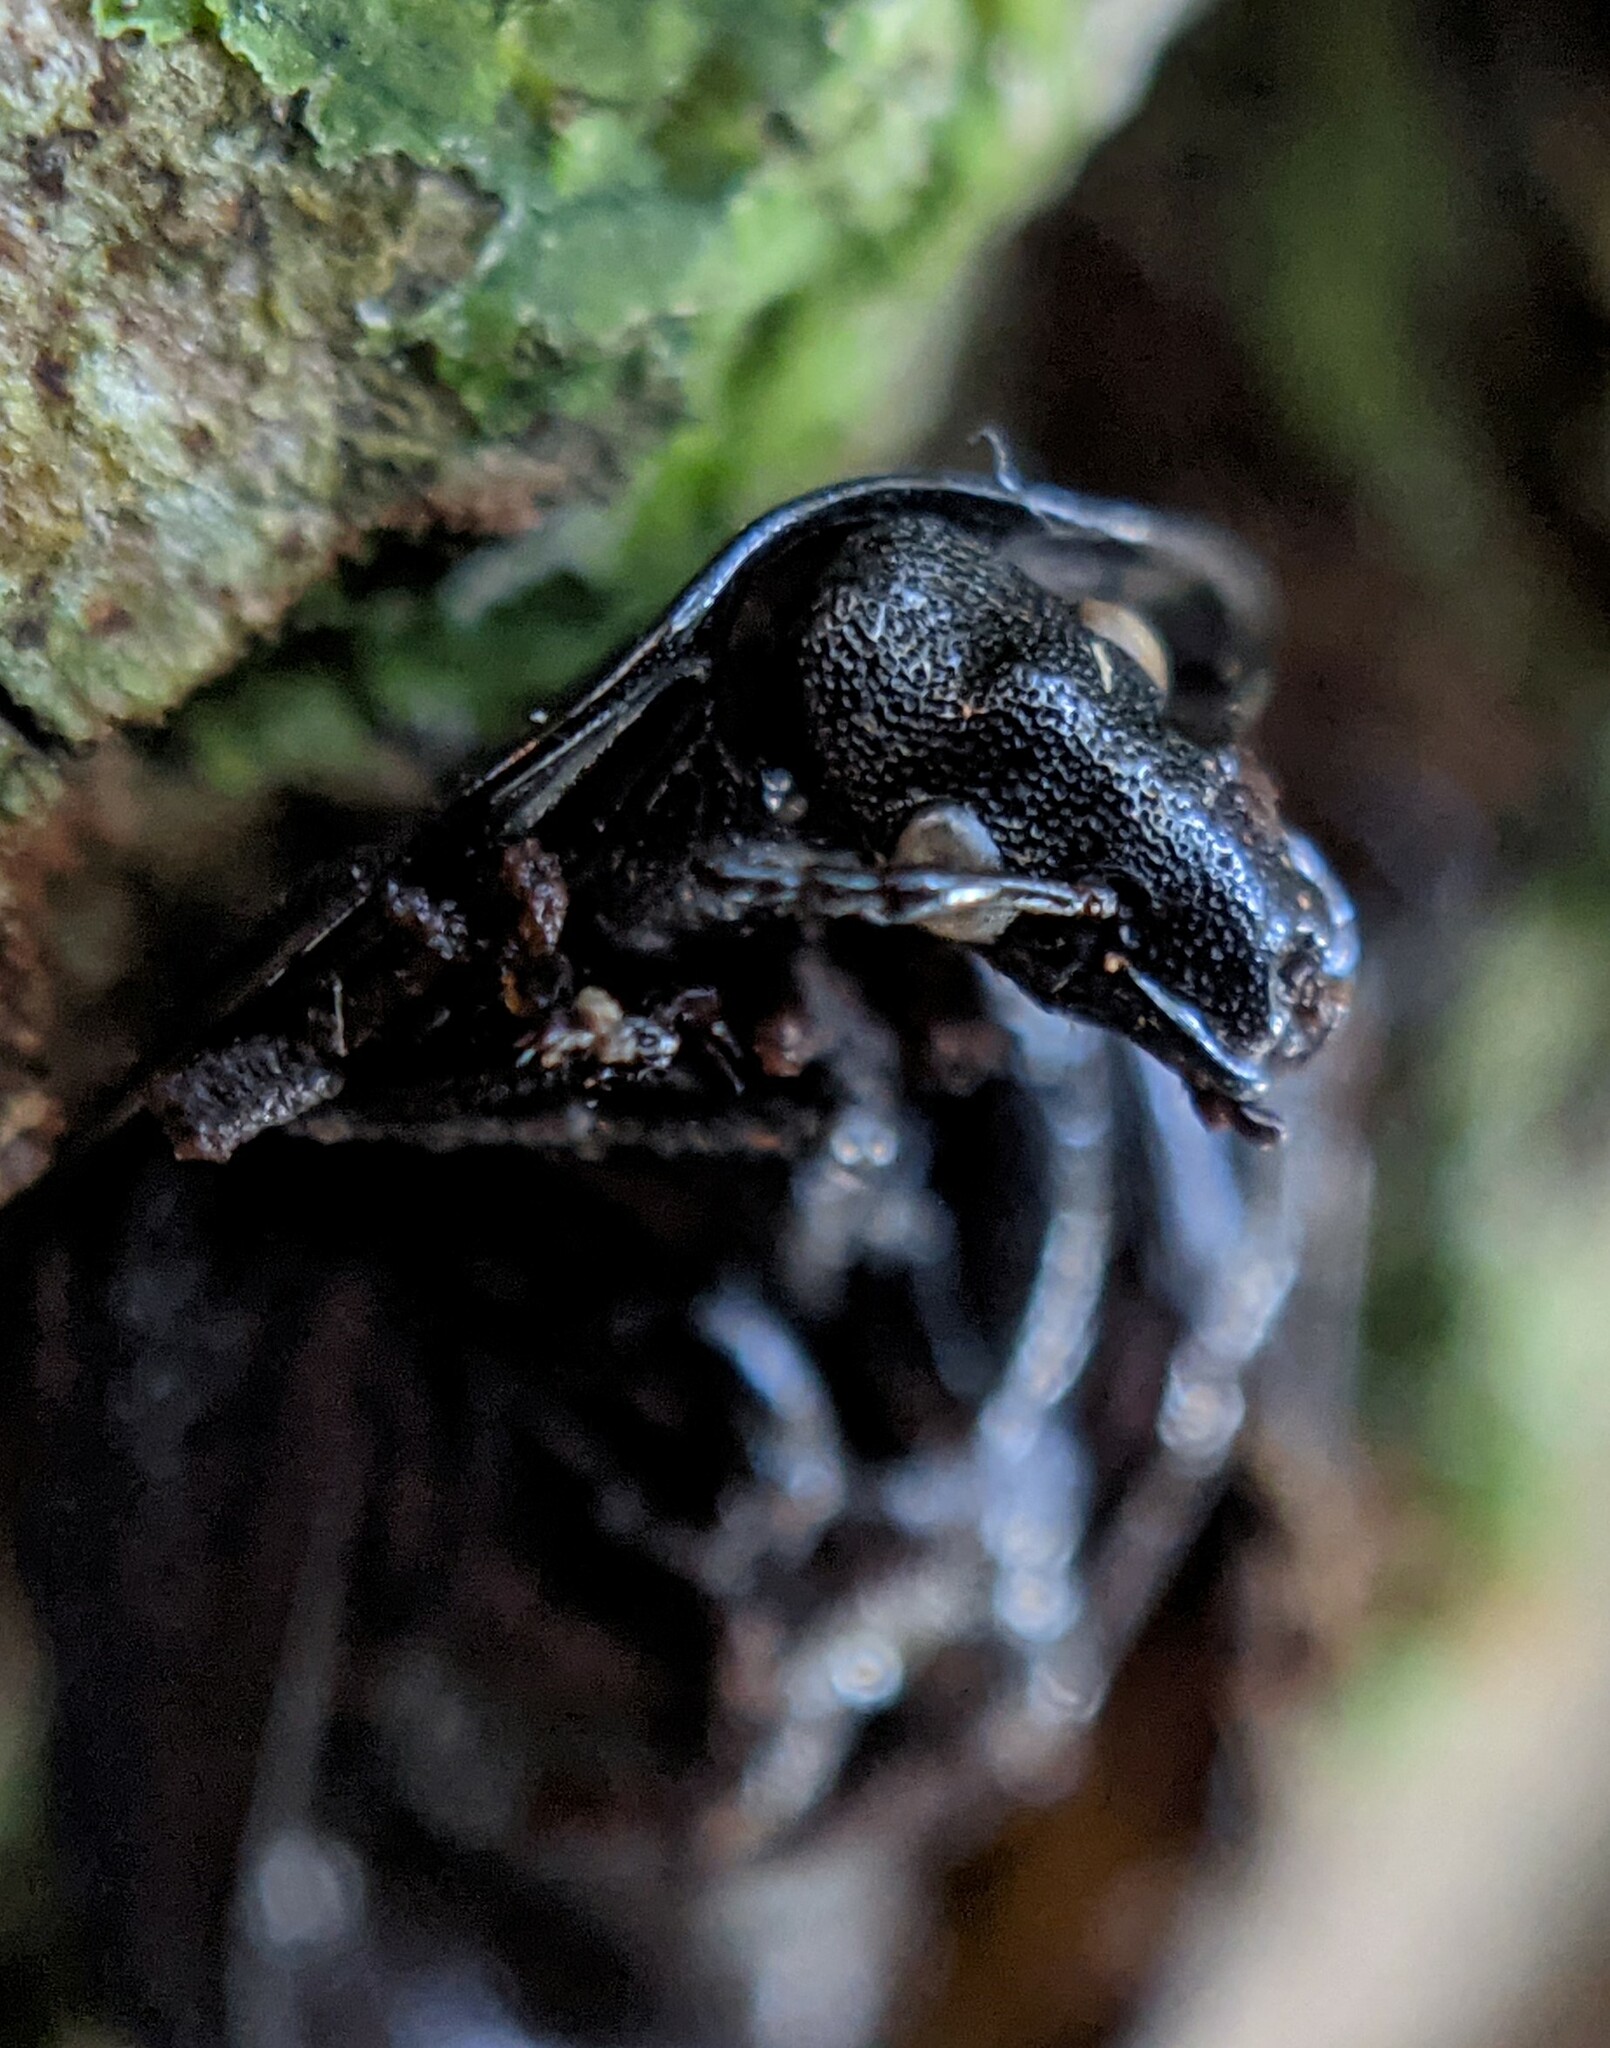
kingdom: Animalia
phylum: Arthropoda
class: Insecta
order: Coleoptera
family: Staphylinidae
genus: Silpha
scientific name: Silpha atrata
